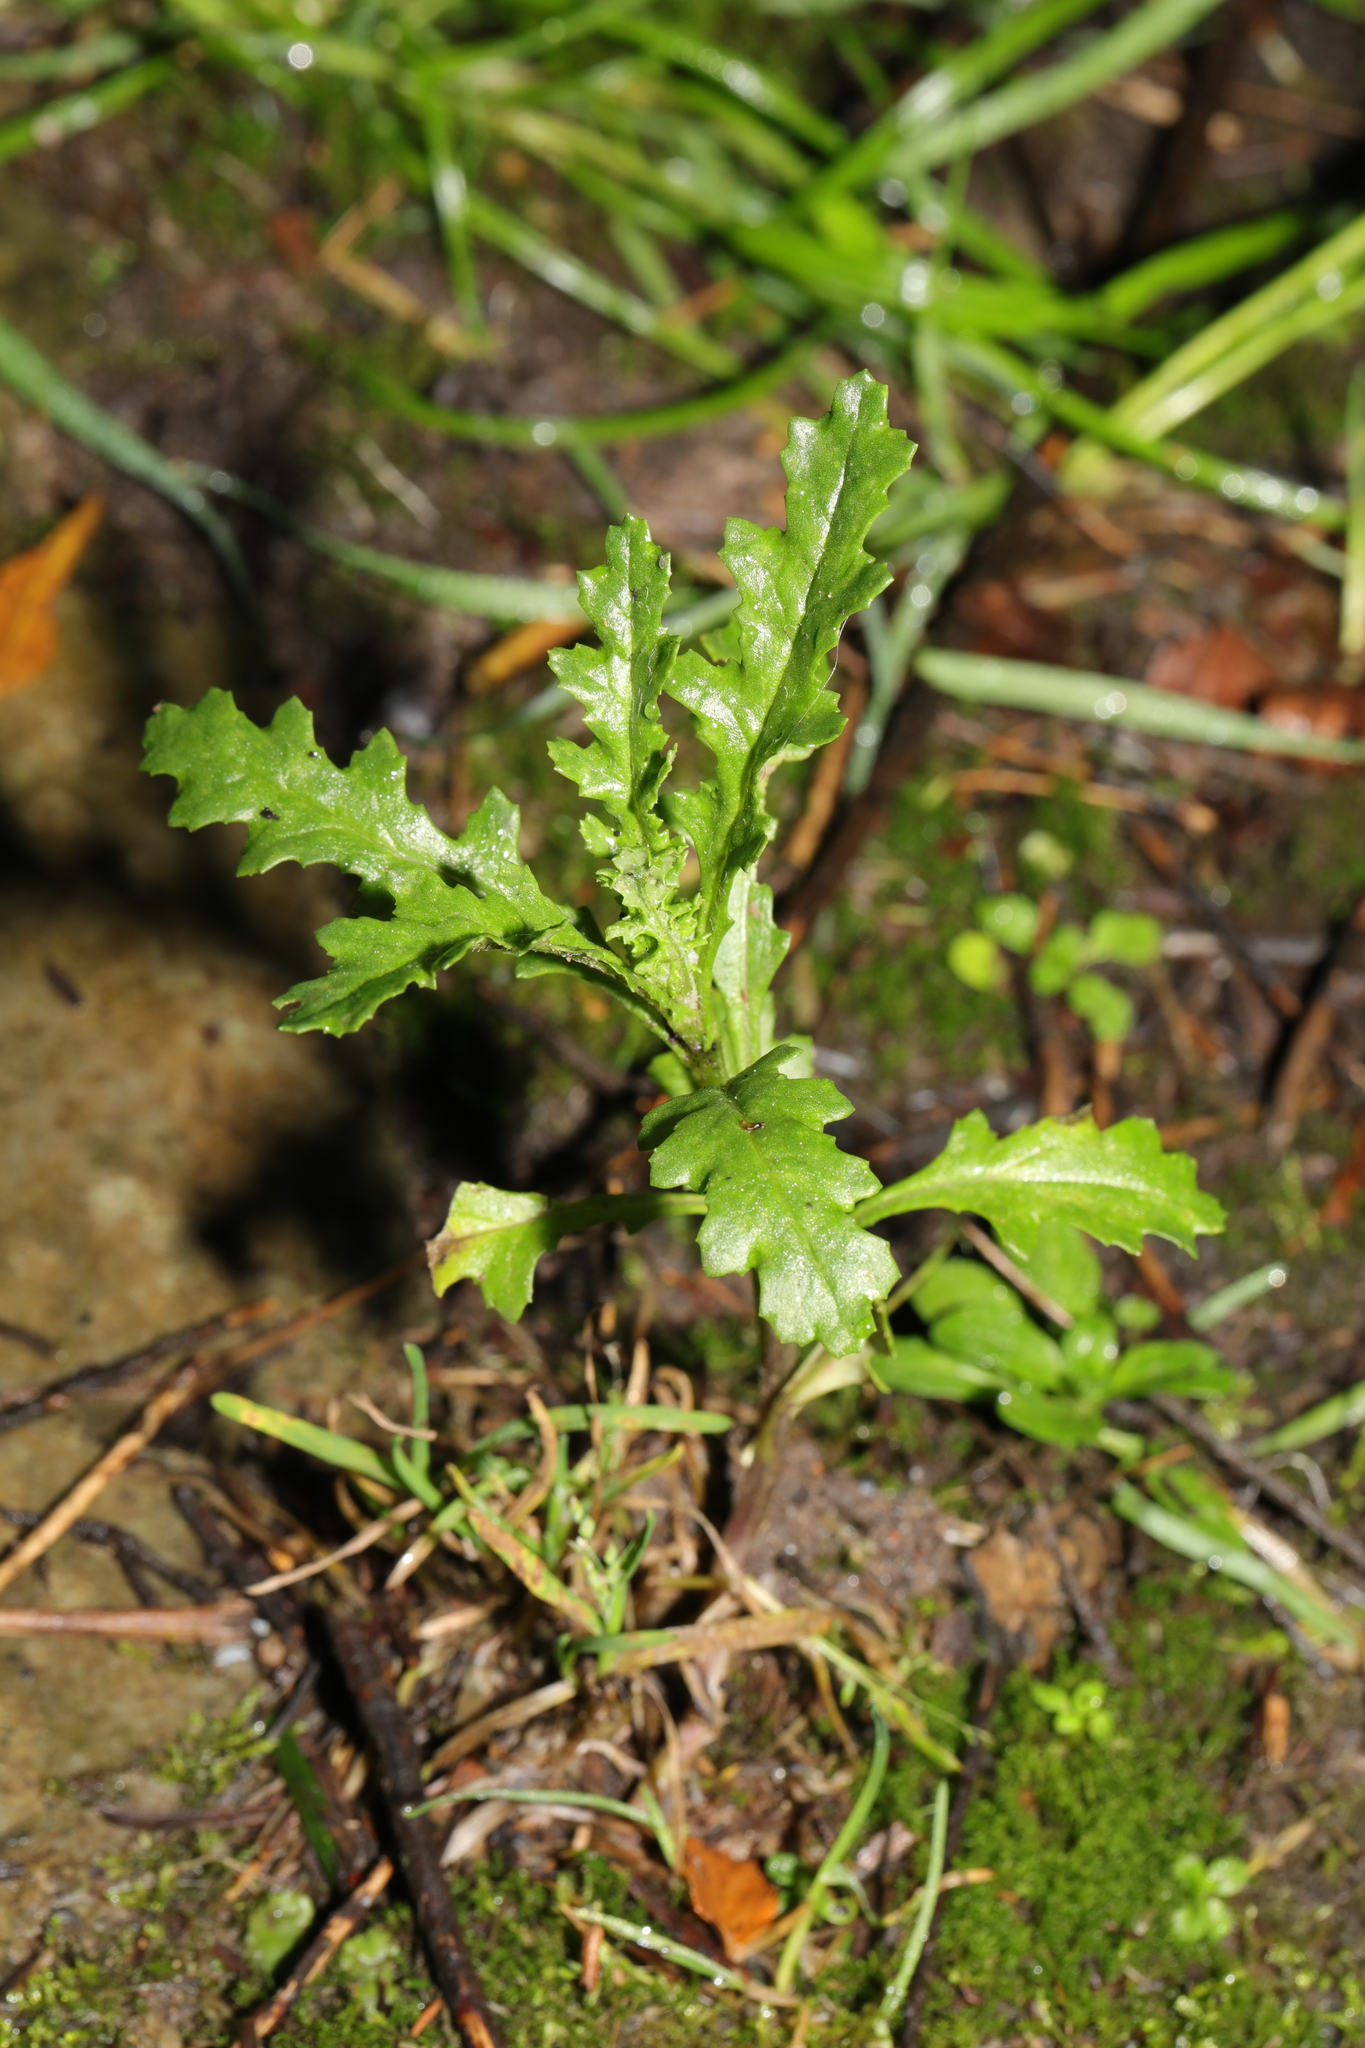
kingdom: Plantae
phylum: Tracheophyta
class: Magnoliopsida
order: Asterales
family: Asteraceae
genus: Senecio
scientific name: Senecio vulgaris
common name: Old-man-in-the-spring
